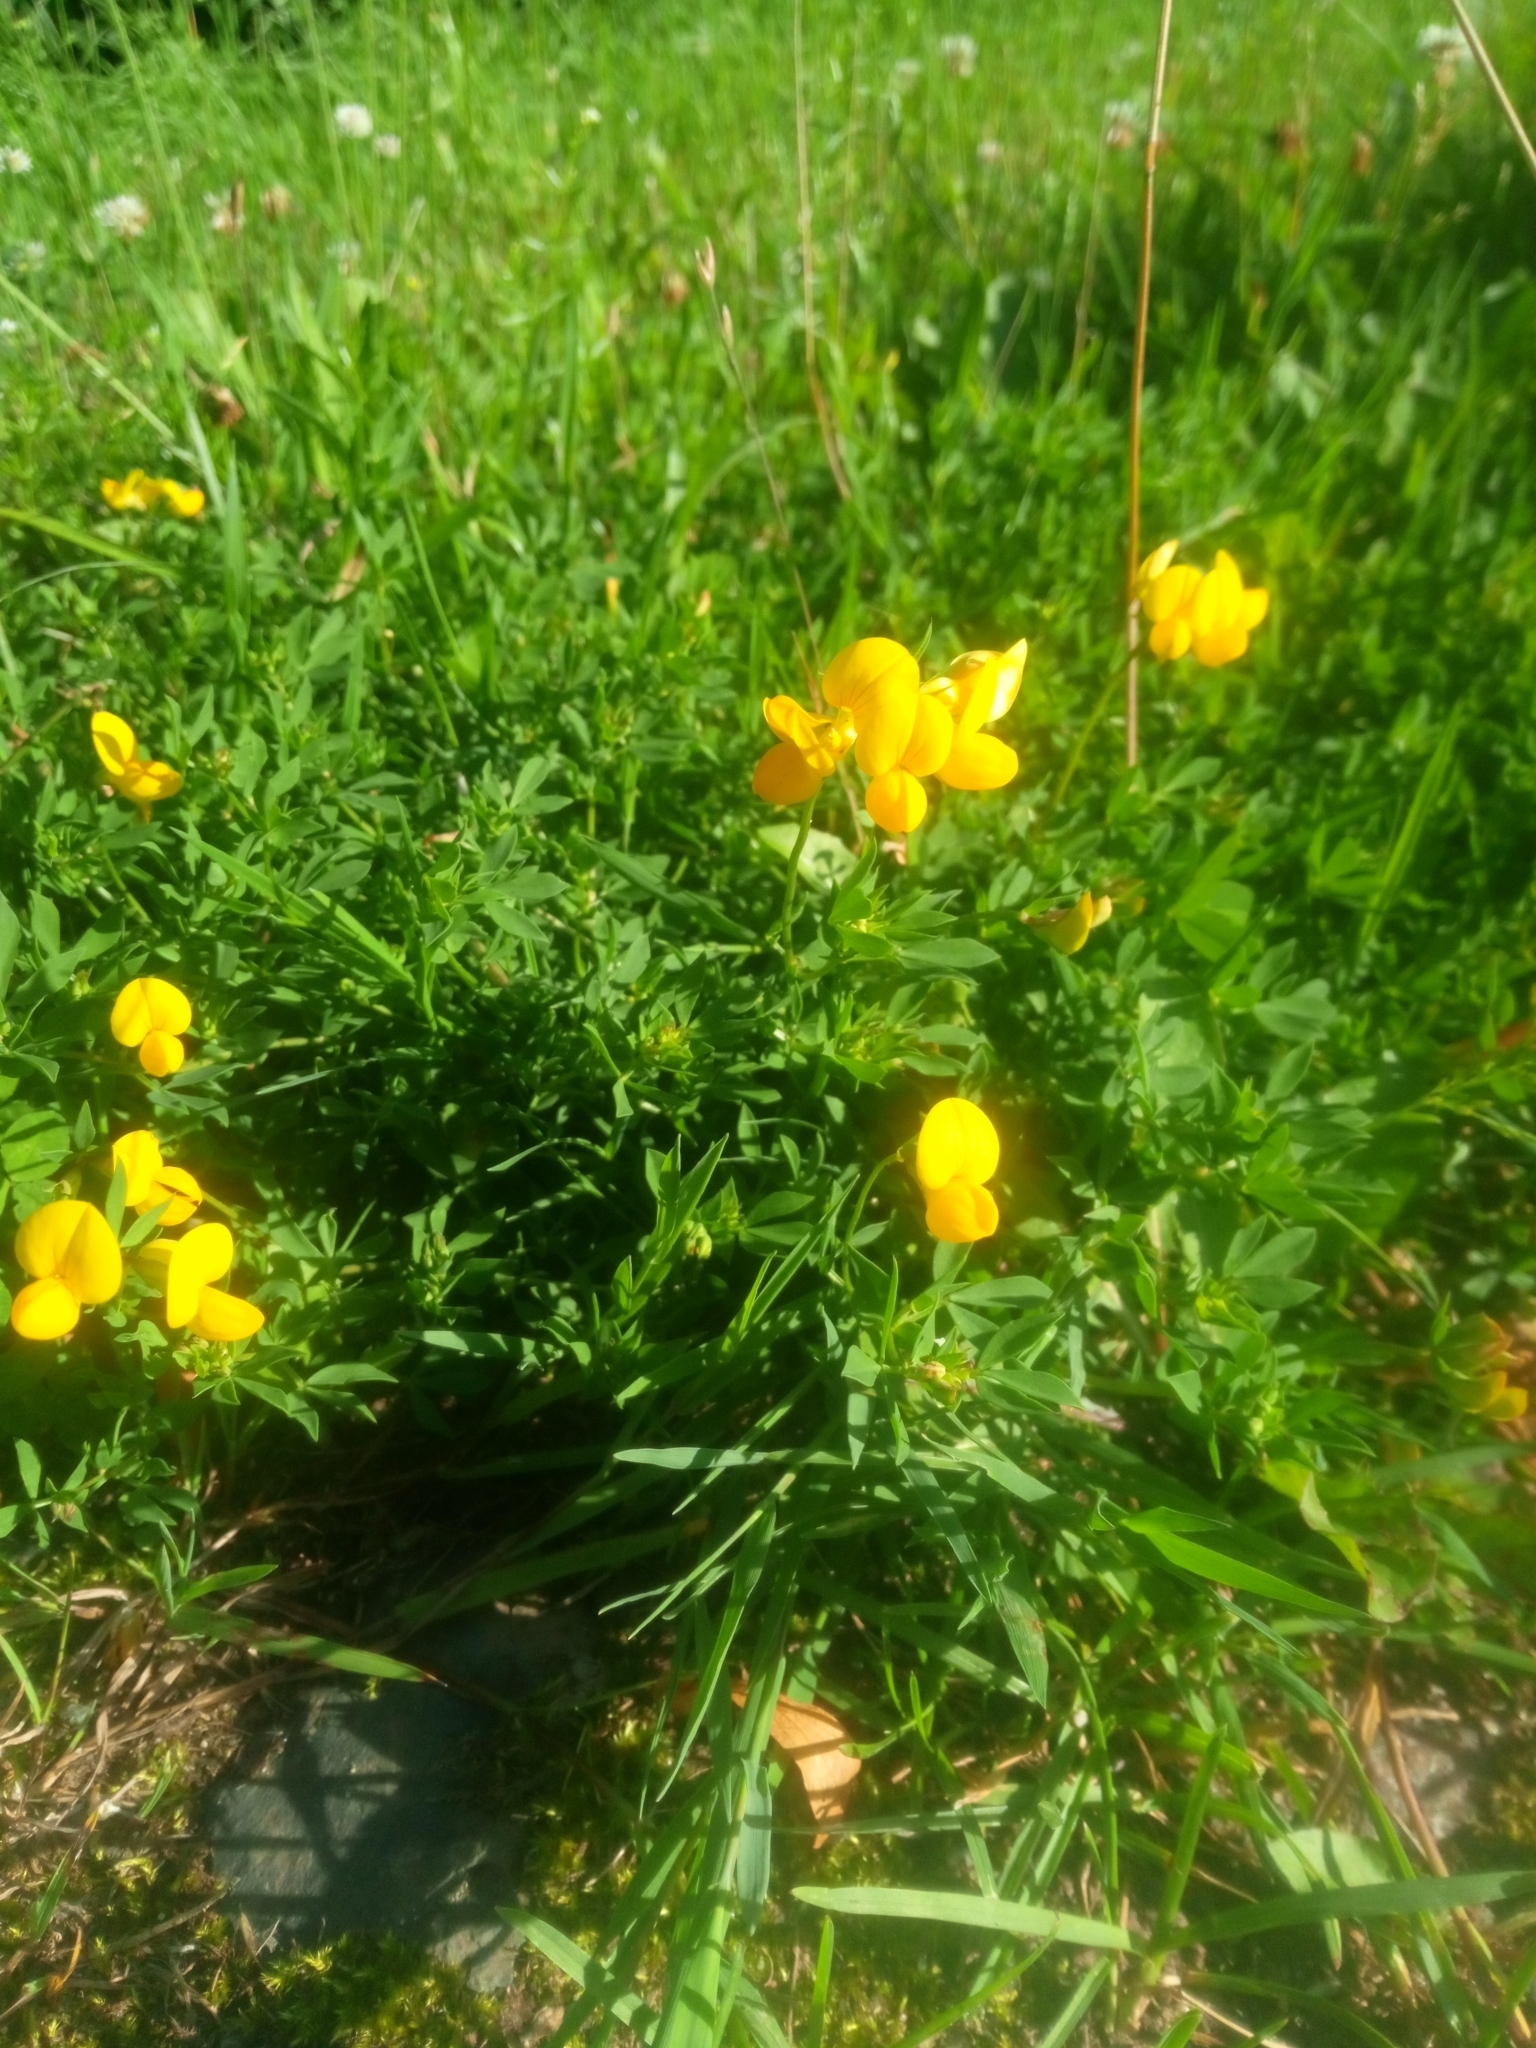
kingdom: Plantae
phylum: Tracheophyta
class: Magnoliopsida
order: Fabales
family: Fabaceae
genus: Lotus
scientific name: Lotus corniculatus
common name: Common bird's-foot-trefoil
